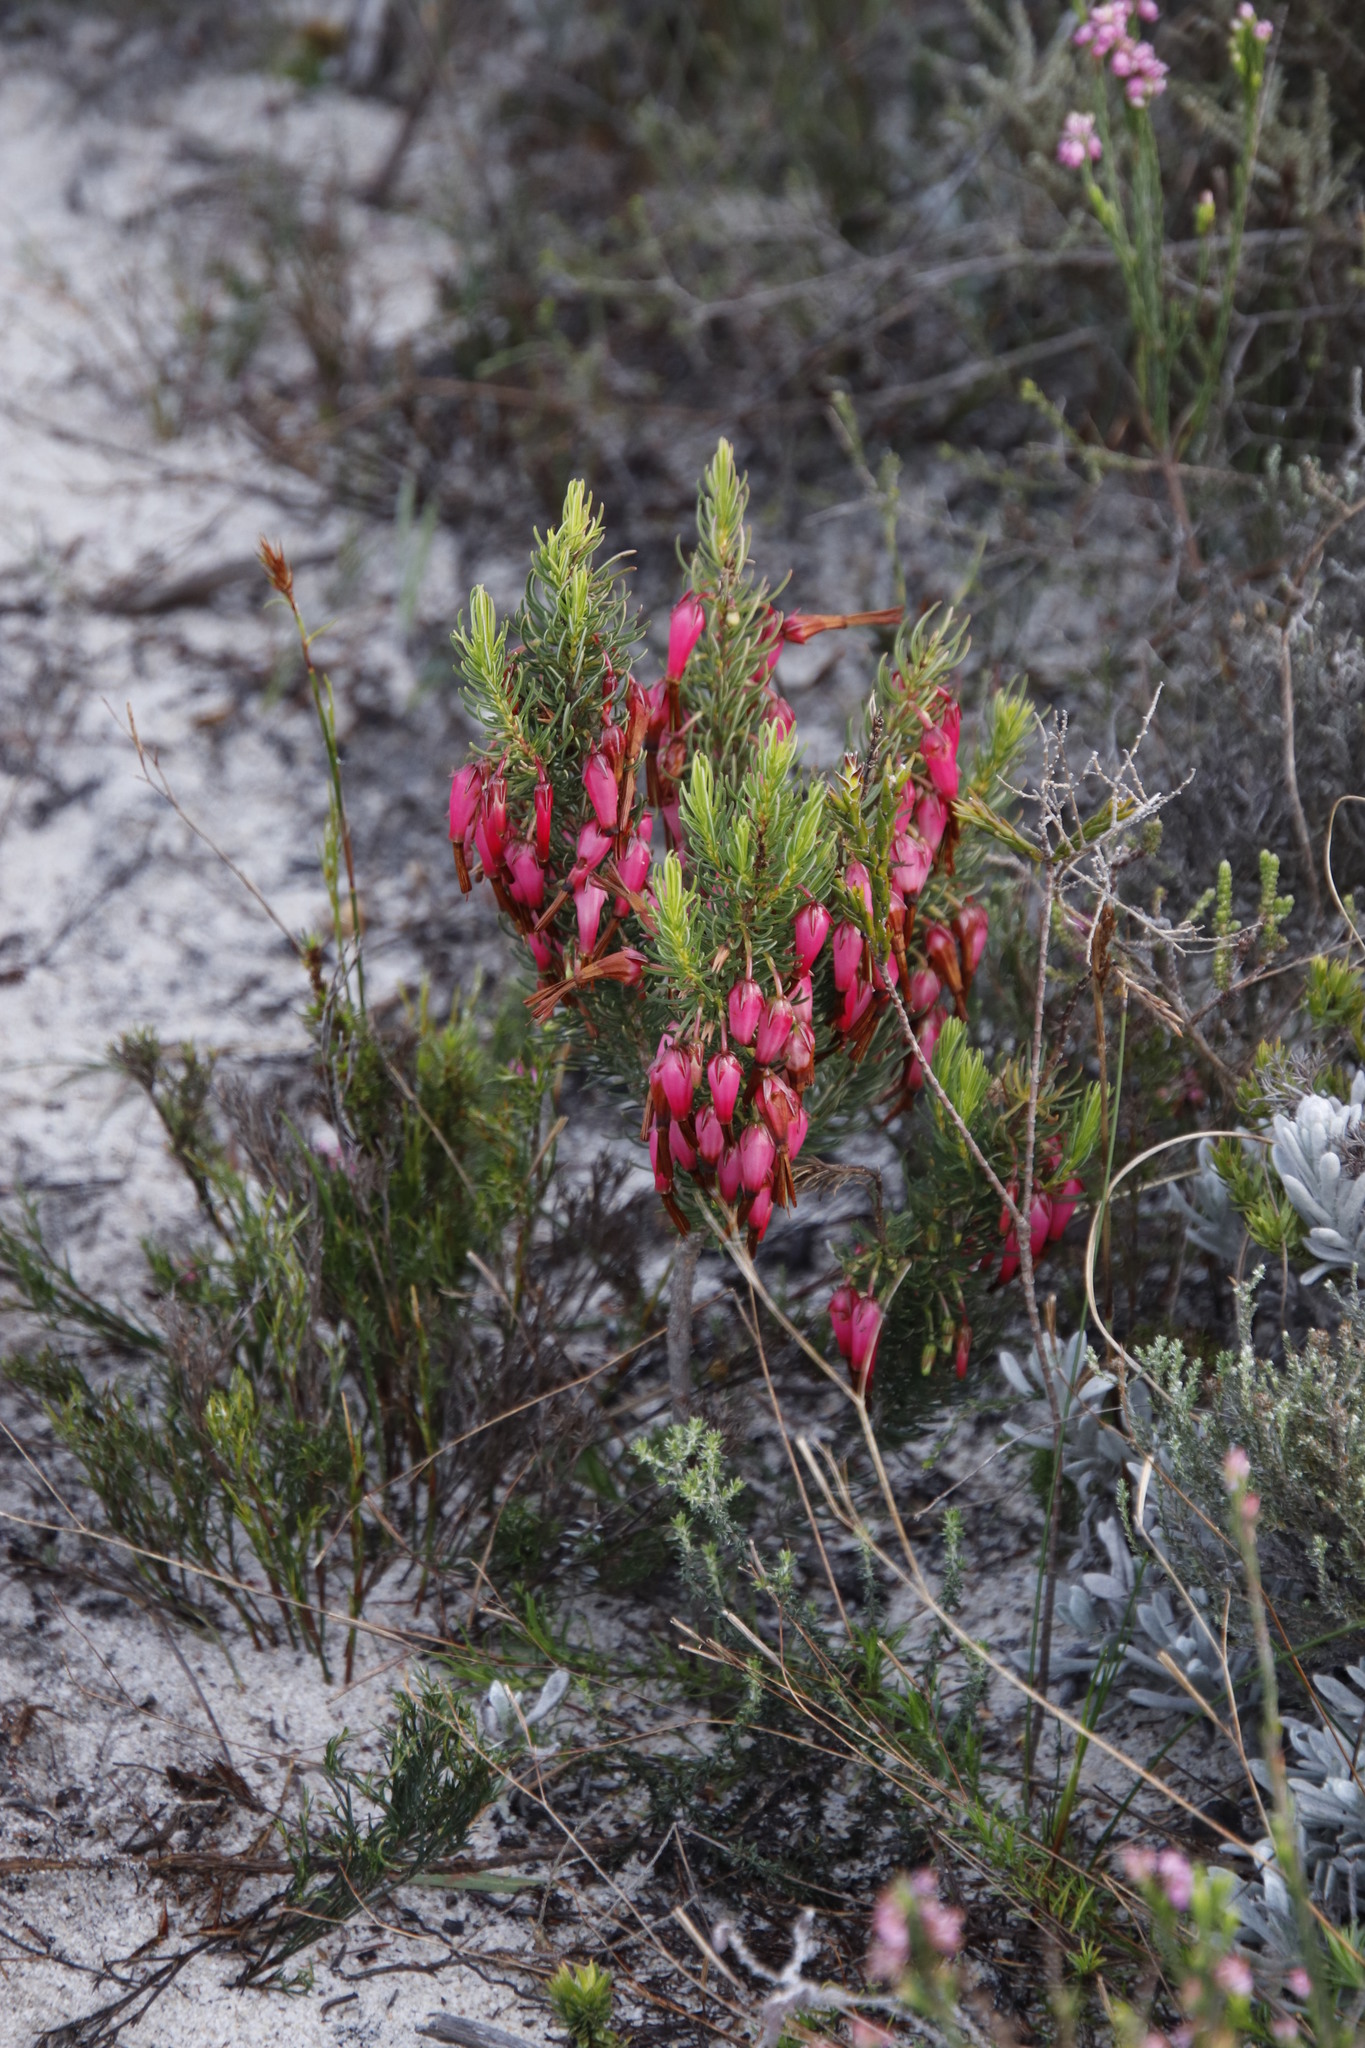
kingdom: Plantae
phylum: Tracheophyta
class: Magnoliopsida
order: Ericales
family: Ericaceae
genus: Erica
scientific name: Erica plukenetii
